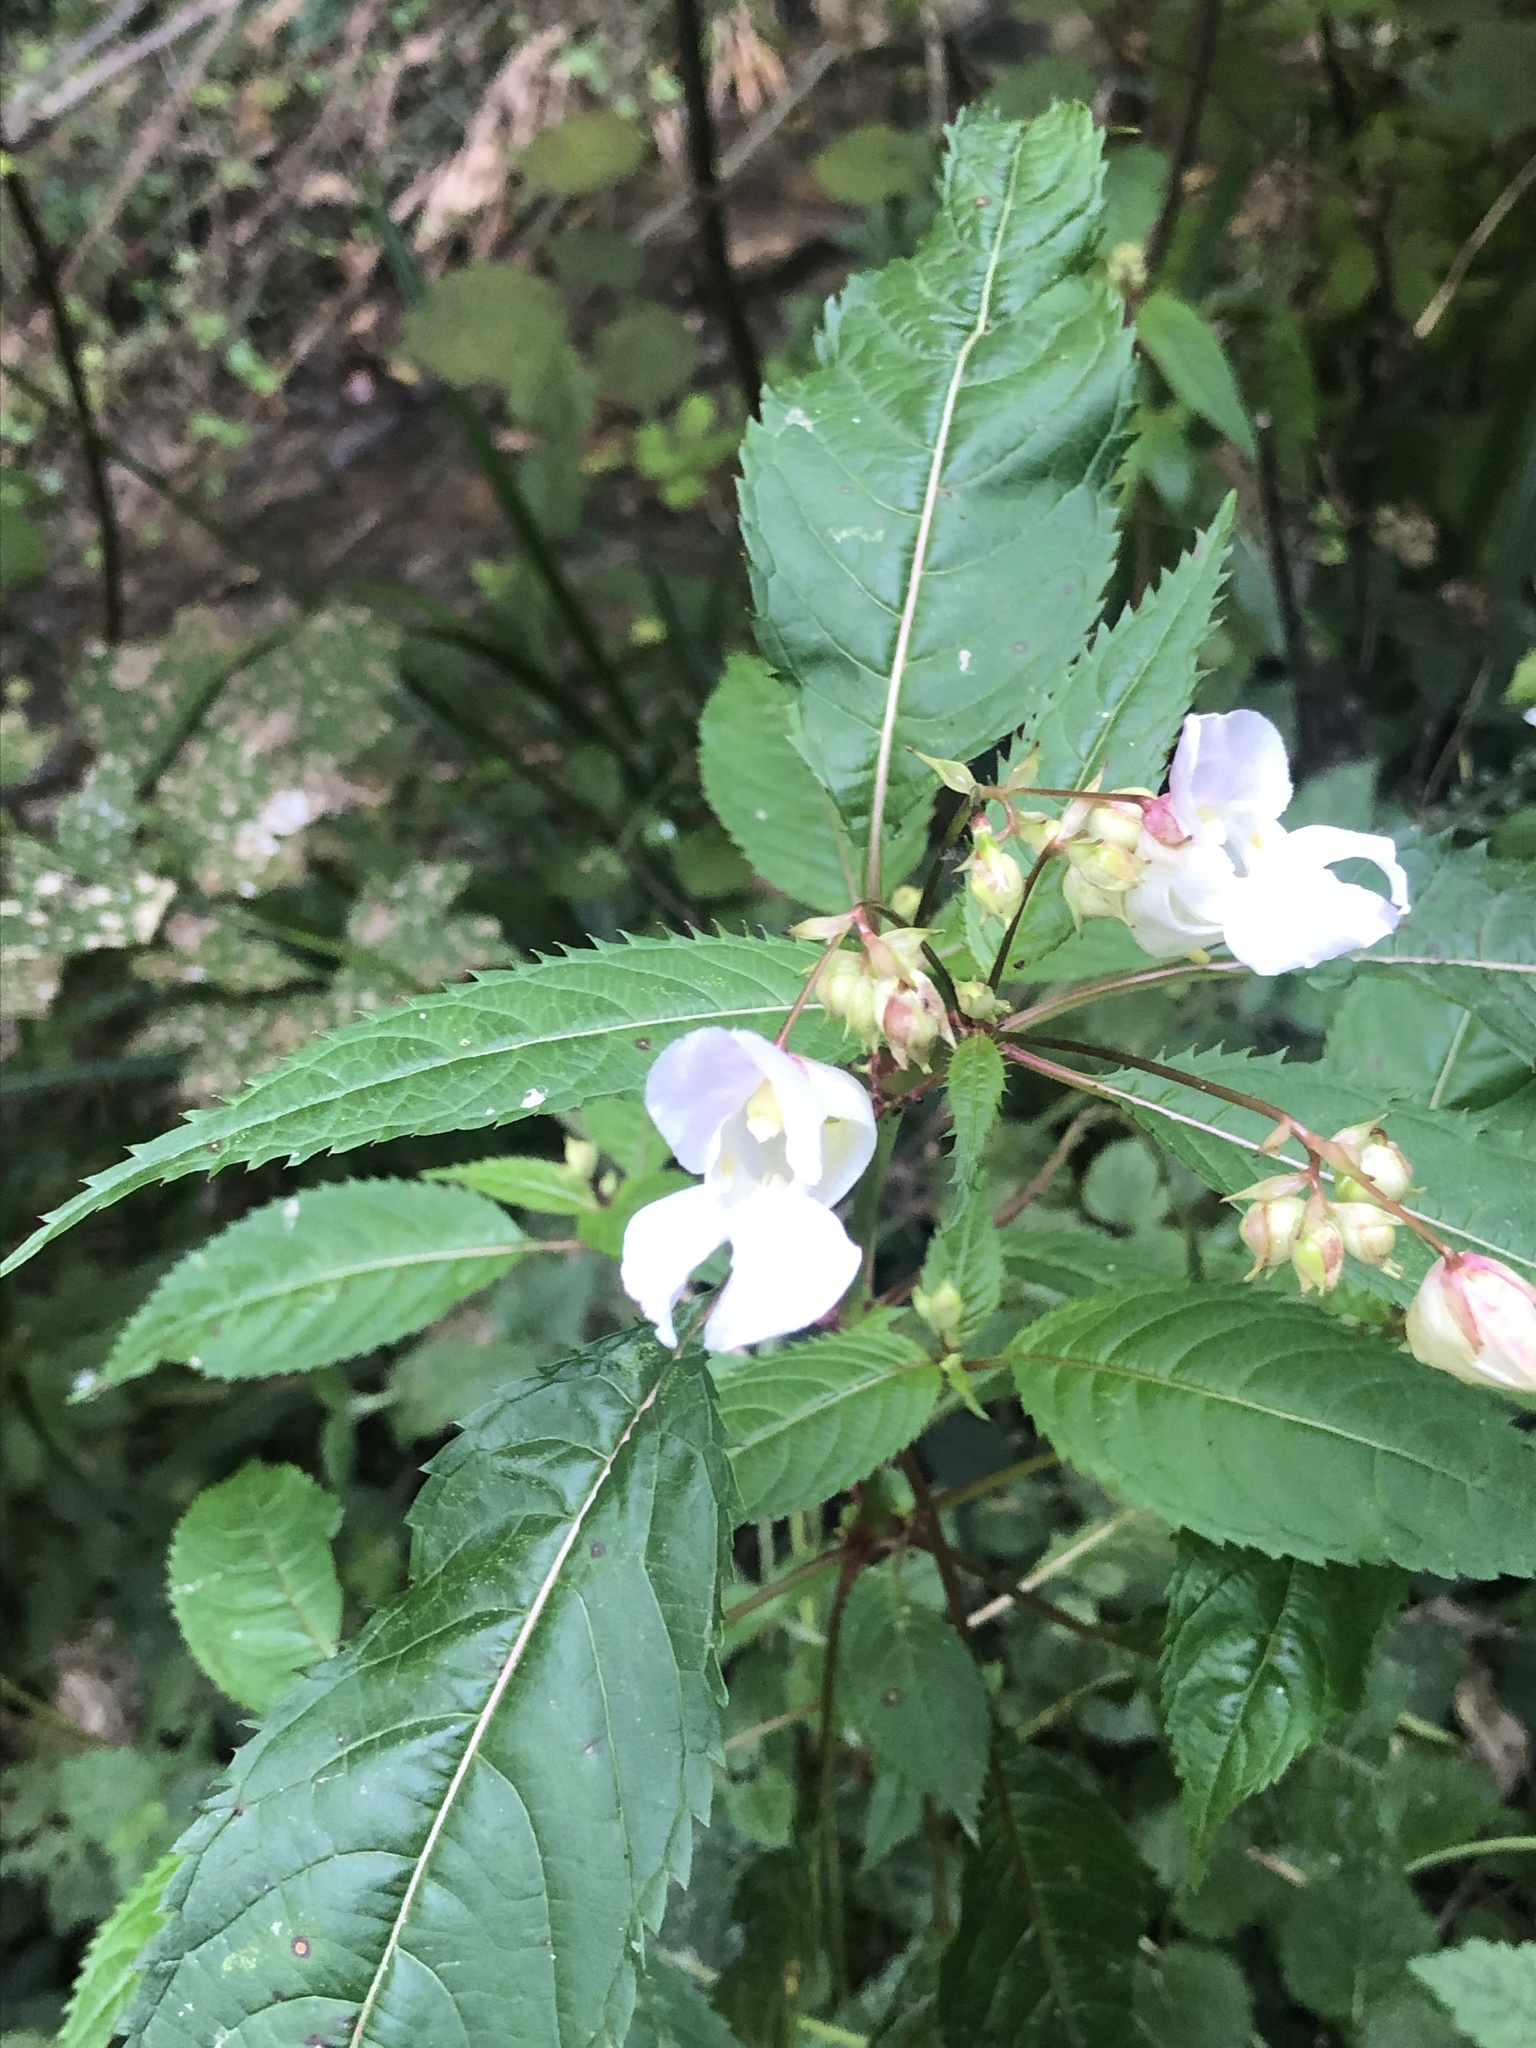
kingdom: Plantae
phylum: Tracheophyta
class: Magnoliopsida
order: Ericales
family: Balsaminaceae
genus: Impatiens
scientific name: Impatiens glandulifera
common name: Himalayan balsam
